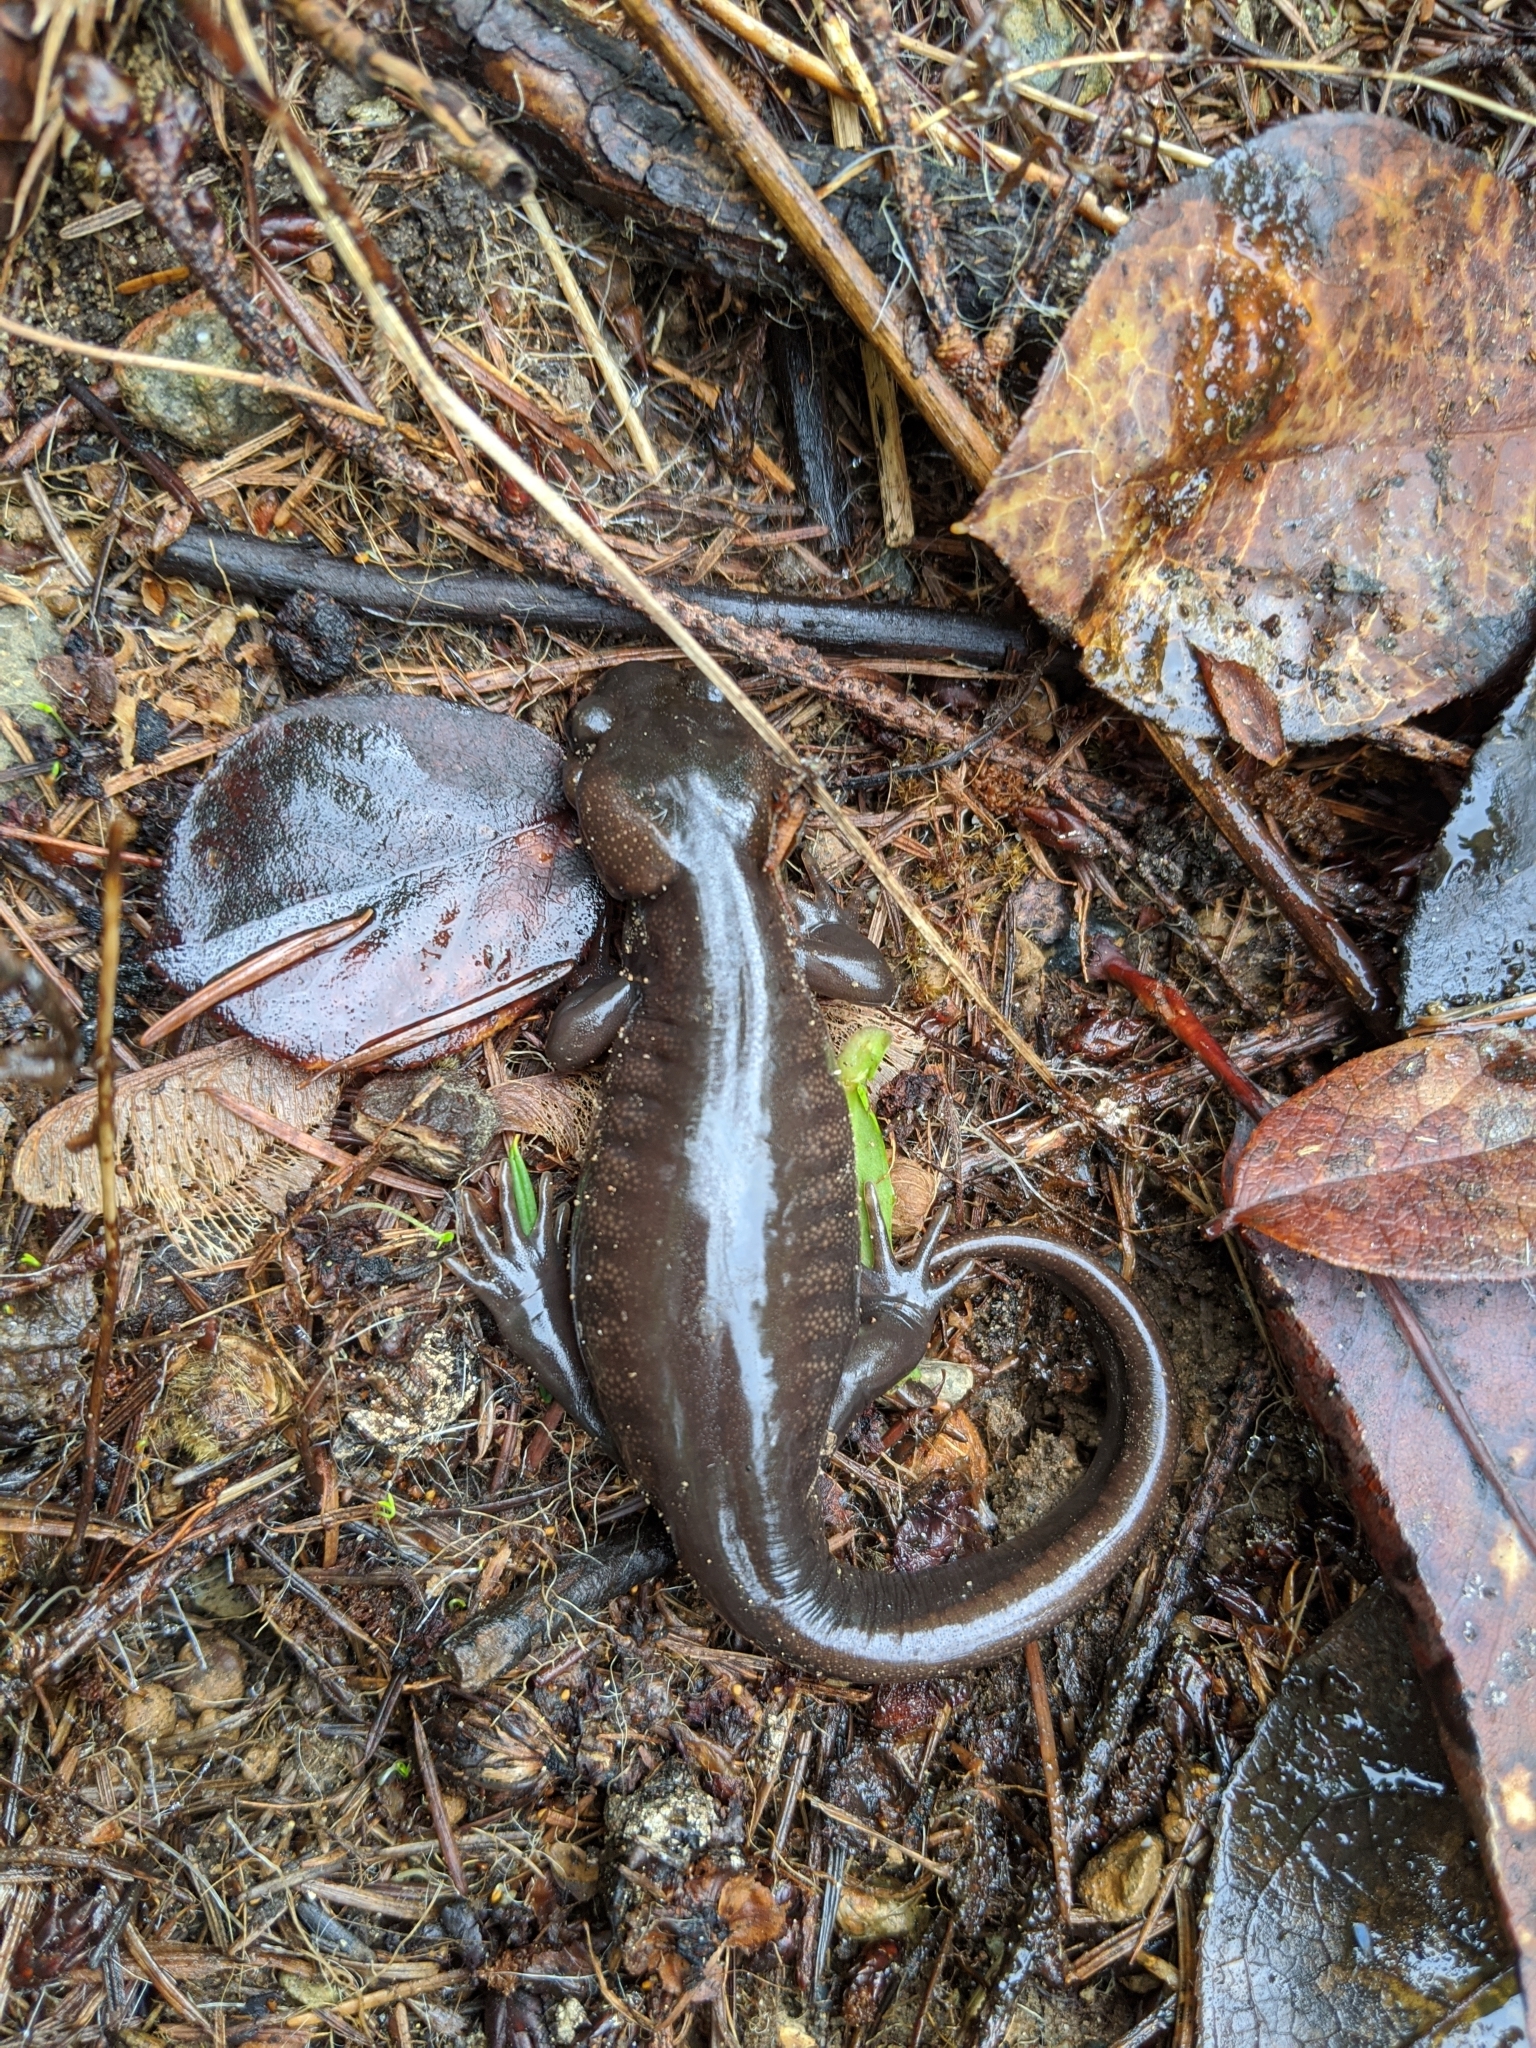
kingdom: Animalia
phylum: Chordata
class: Amphibia
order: Caudata
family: Ambystomatidae
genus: Ambystoma
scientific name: Ambystoma gracile
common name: Northwestern salamander
